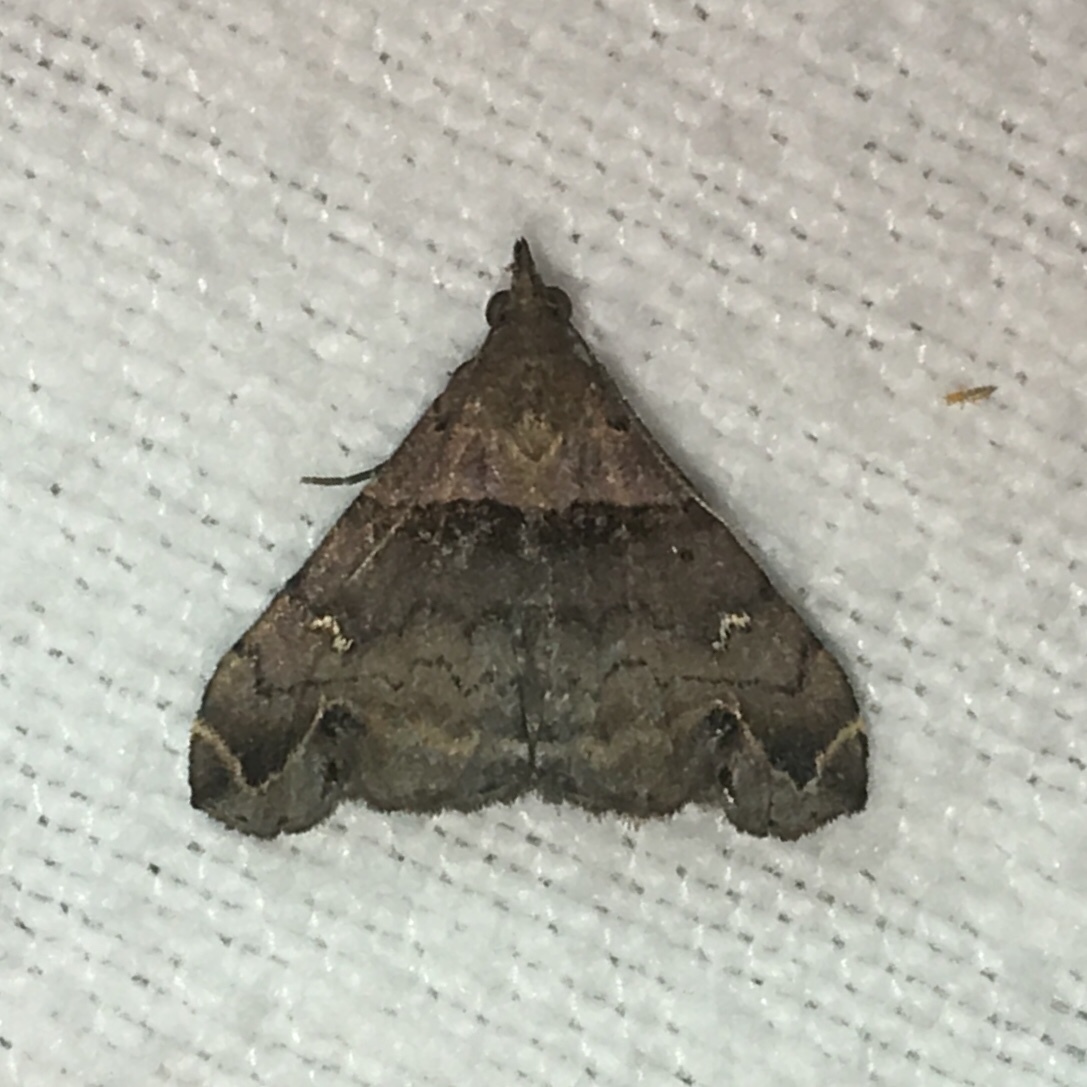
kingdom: Animalia
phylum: Arthropoda
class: Insecta
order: Lepidoptera
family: Erebidae
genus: Lascoria
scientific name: Lascoria ambigualis
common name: Ambiguous moth
